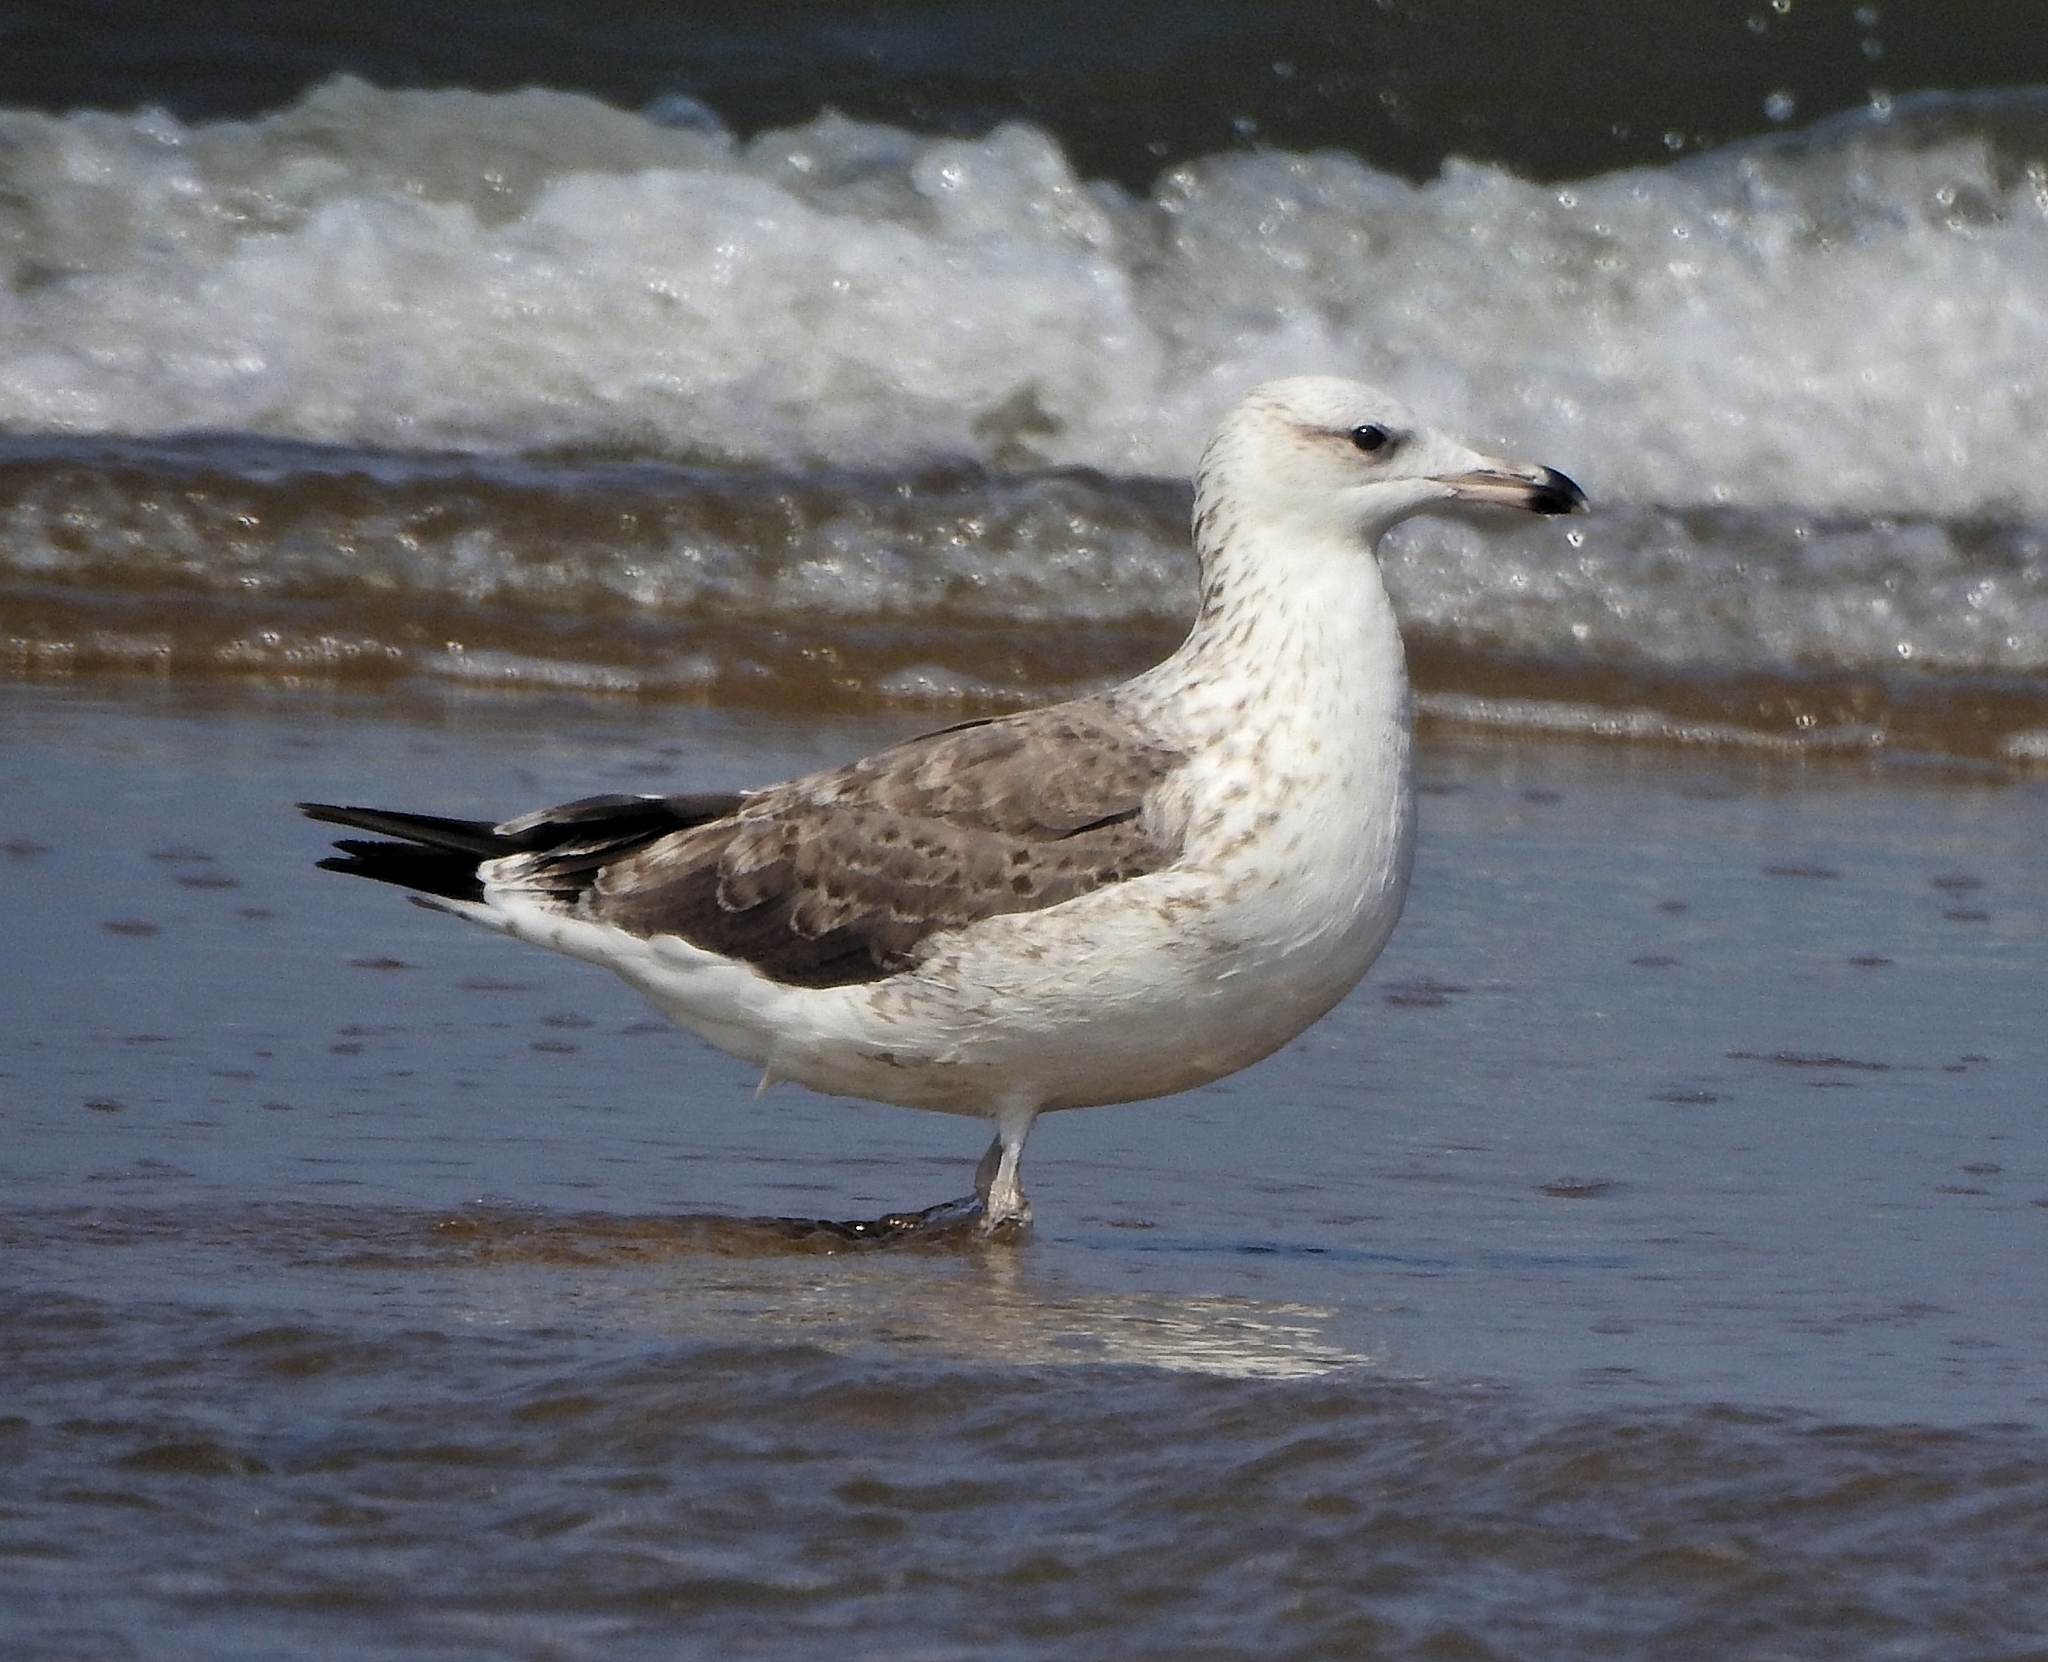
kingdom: Animalia
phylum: Chordata
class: Aves
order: Charadriiformes
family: Laridae
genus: Larus
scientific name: Larus fuscus
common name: Lesser black-backed gull
